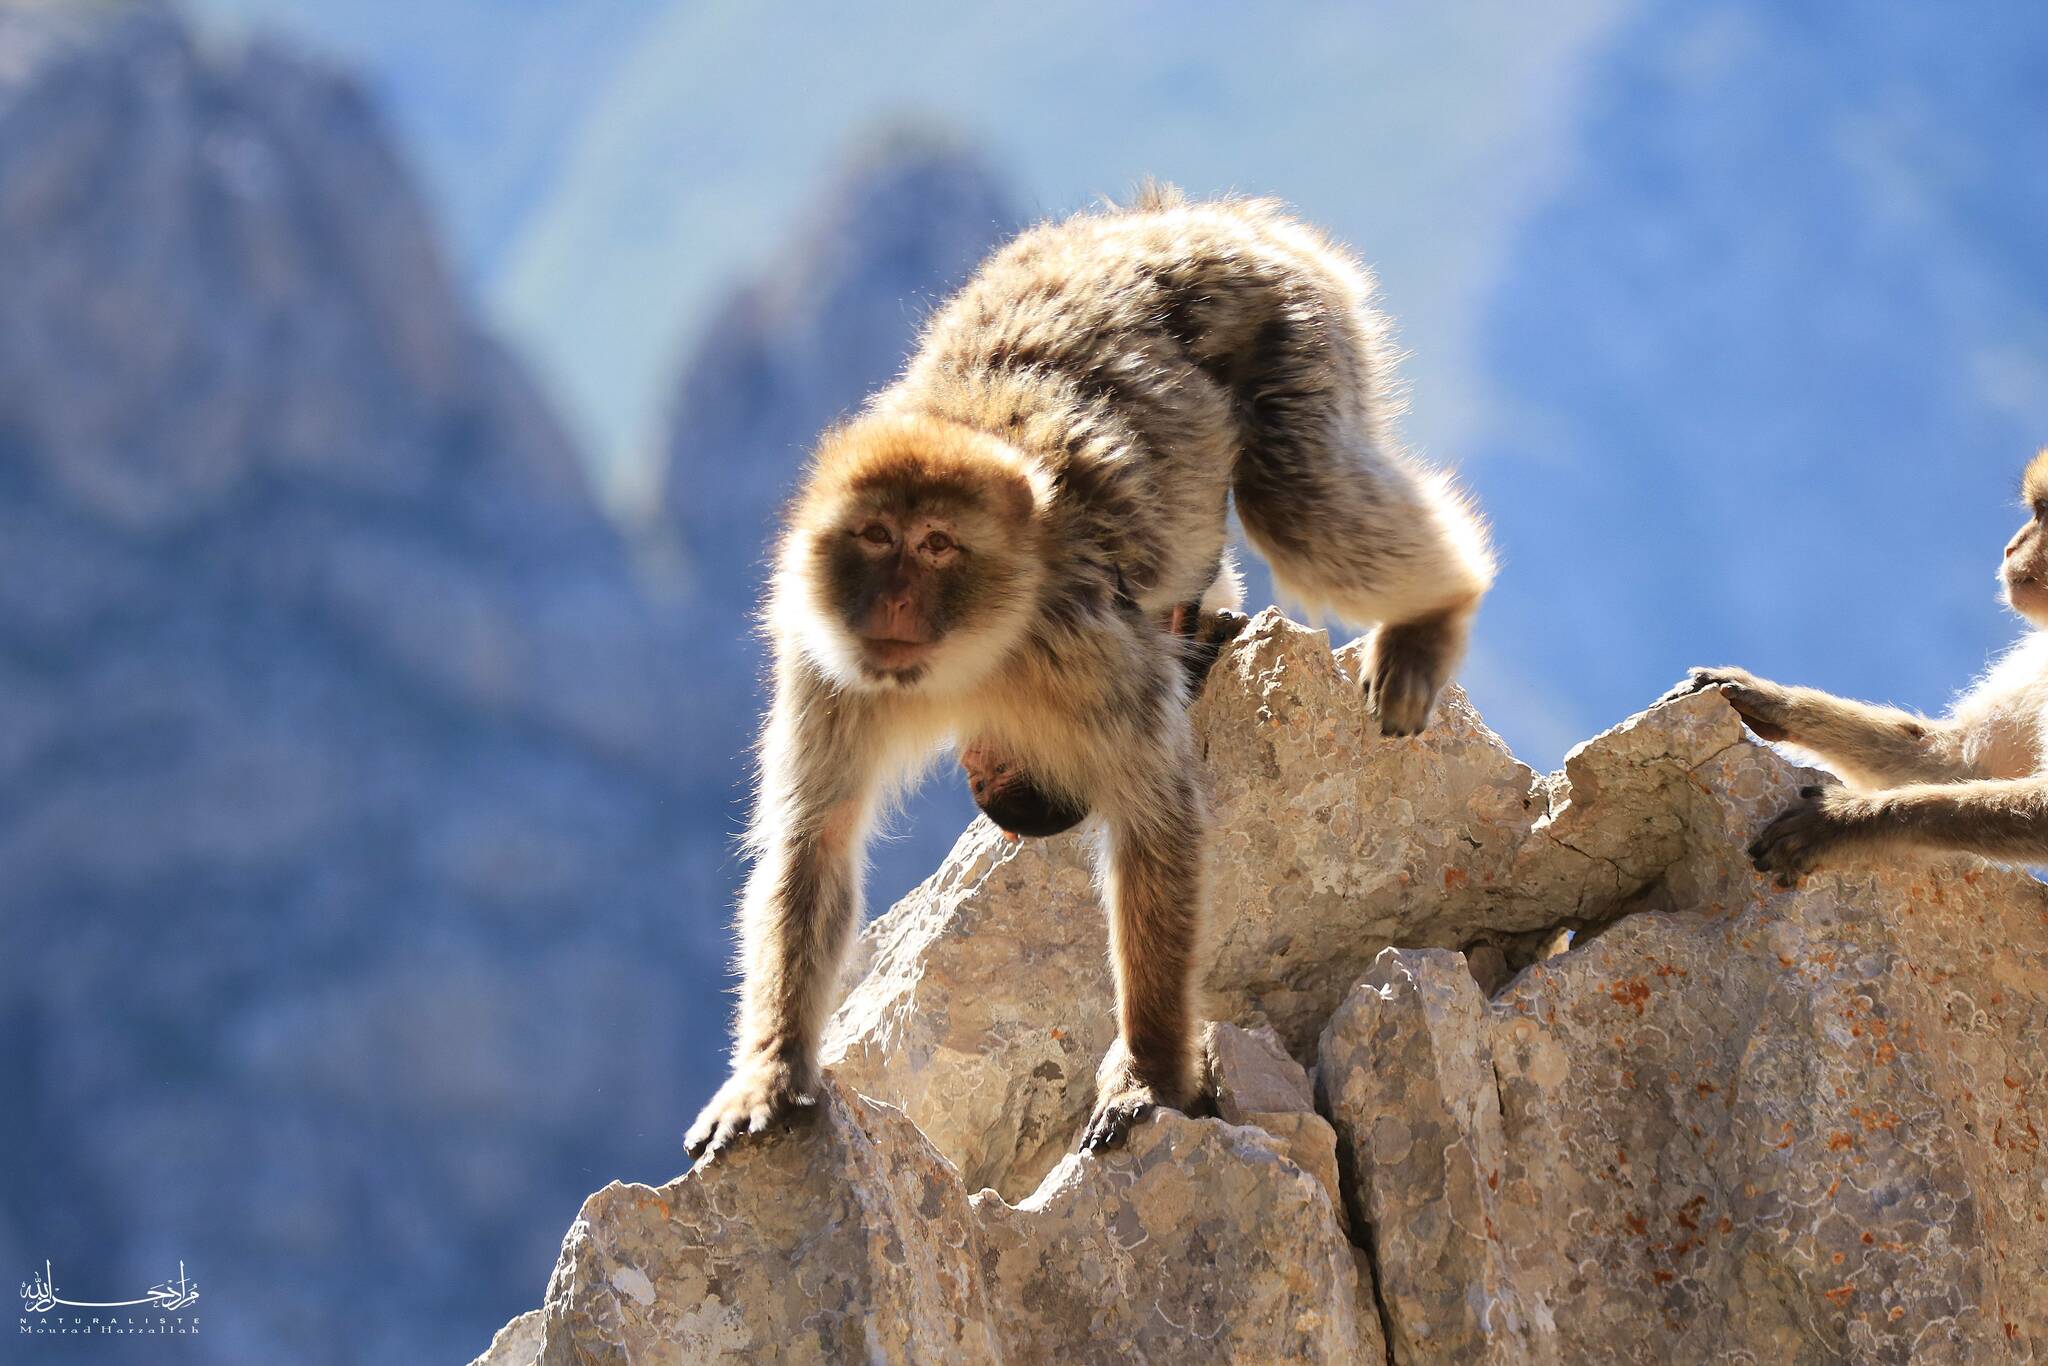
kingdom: Animalia
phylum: Chordata
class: Mammalia
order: Primates
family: Cercopithecidae
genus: Macaca
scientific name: Macaca sylvanus
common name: Barbary macaque
